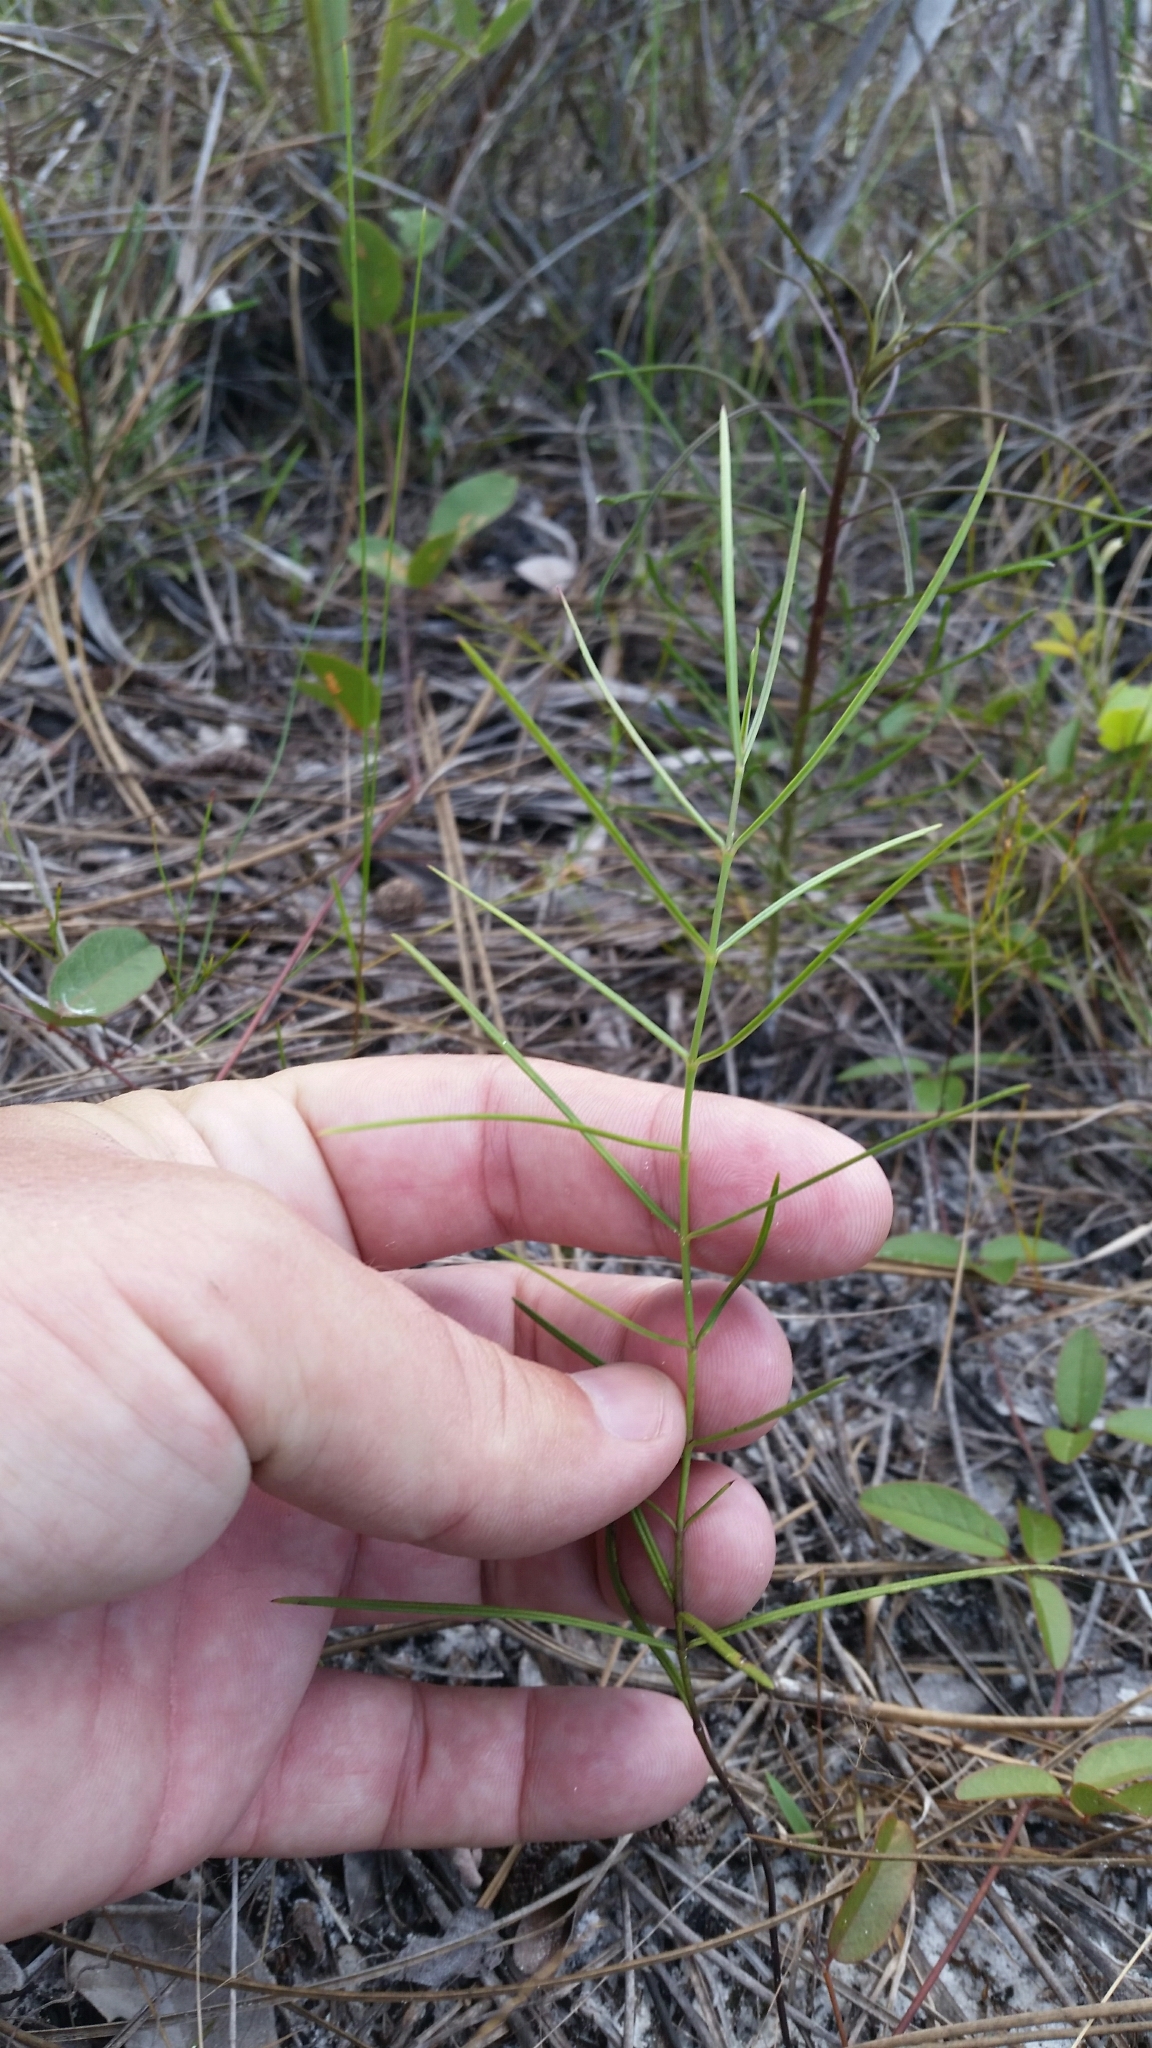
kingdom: Plantae
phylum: Tracheophyta
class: Magnoliopsida
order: Gentianales
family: Apocynaceae
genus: Asclepias
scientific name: Asclepias feayi
